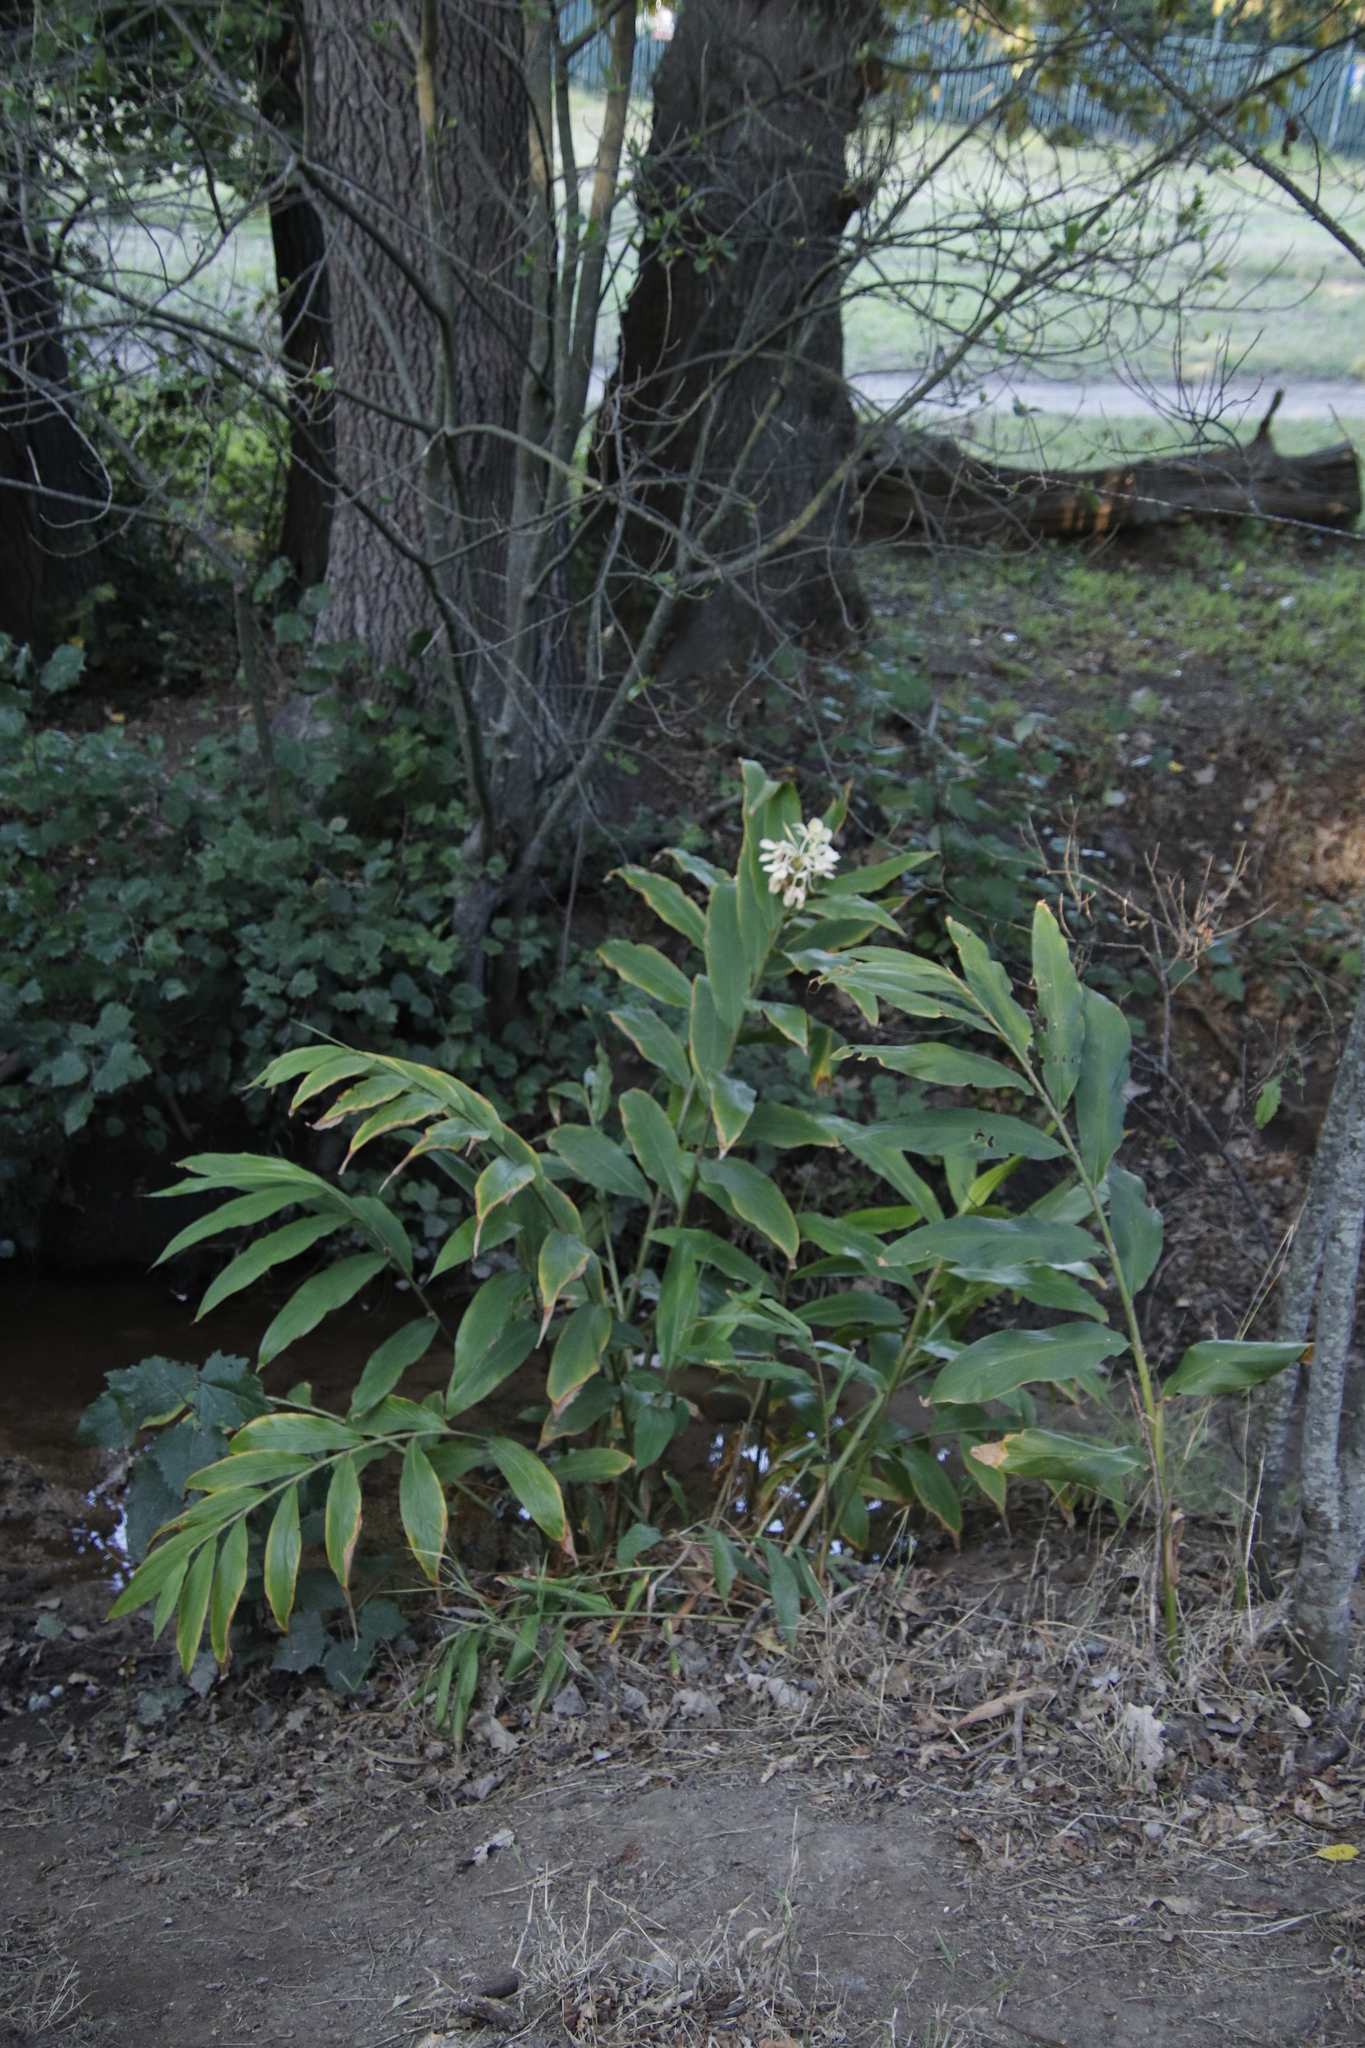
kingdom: Plantae
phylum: Tracheophyta
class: Liliopsida
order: Zingiberales
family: Zingiberaceae
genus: Hedychium
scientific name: Hedychium flavescens
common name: Yellow ginger
